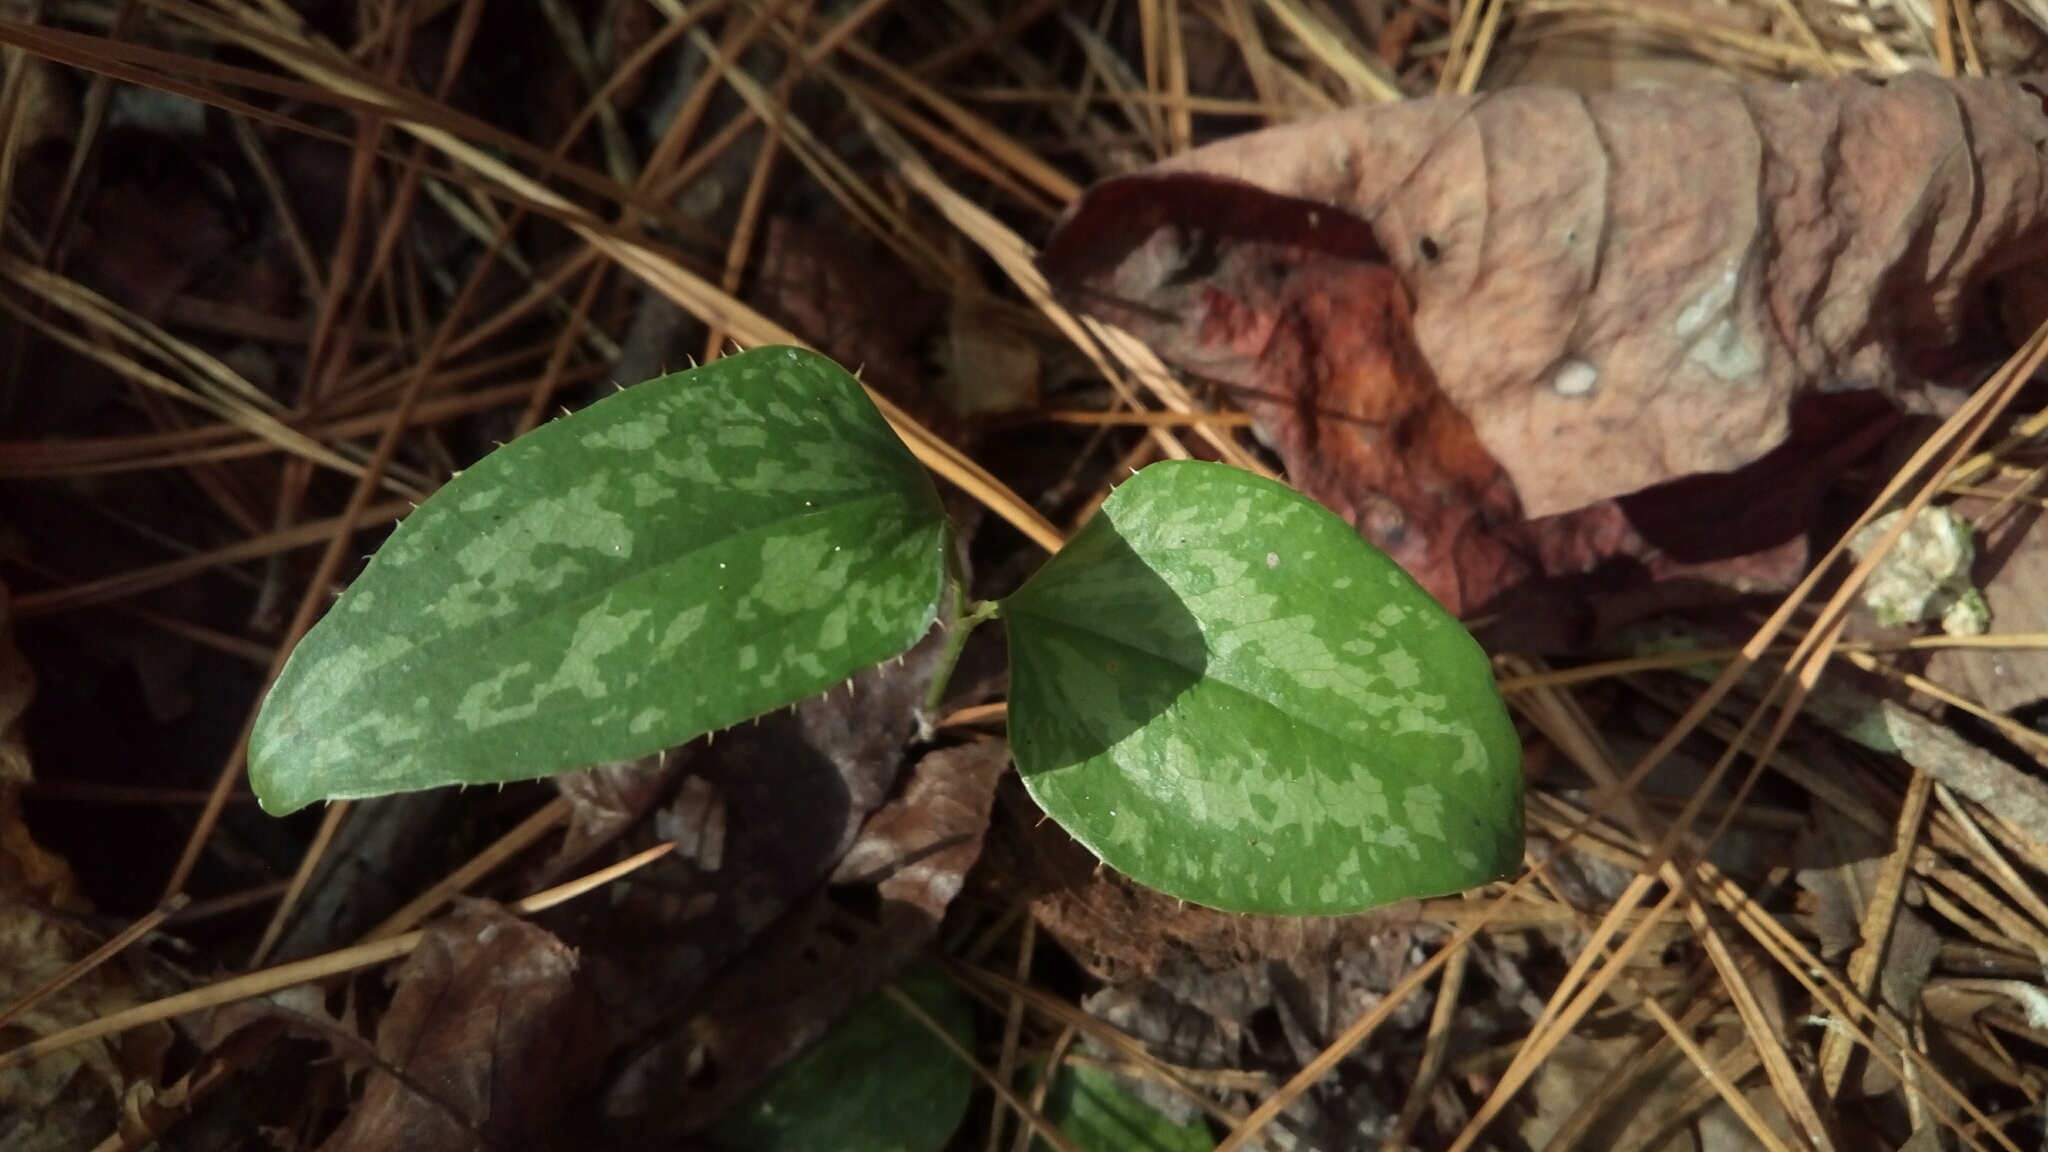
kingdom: Plantae
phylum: Tracheophyta
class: Liliopsida
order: Liliales
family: Smilacaceae
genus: Smilax
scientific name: Smilax bona-nox
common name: Catbrier
